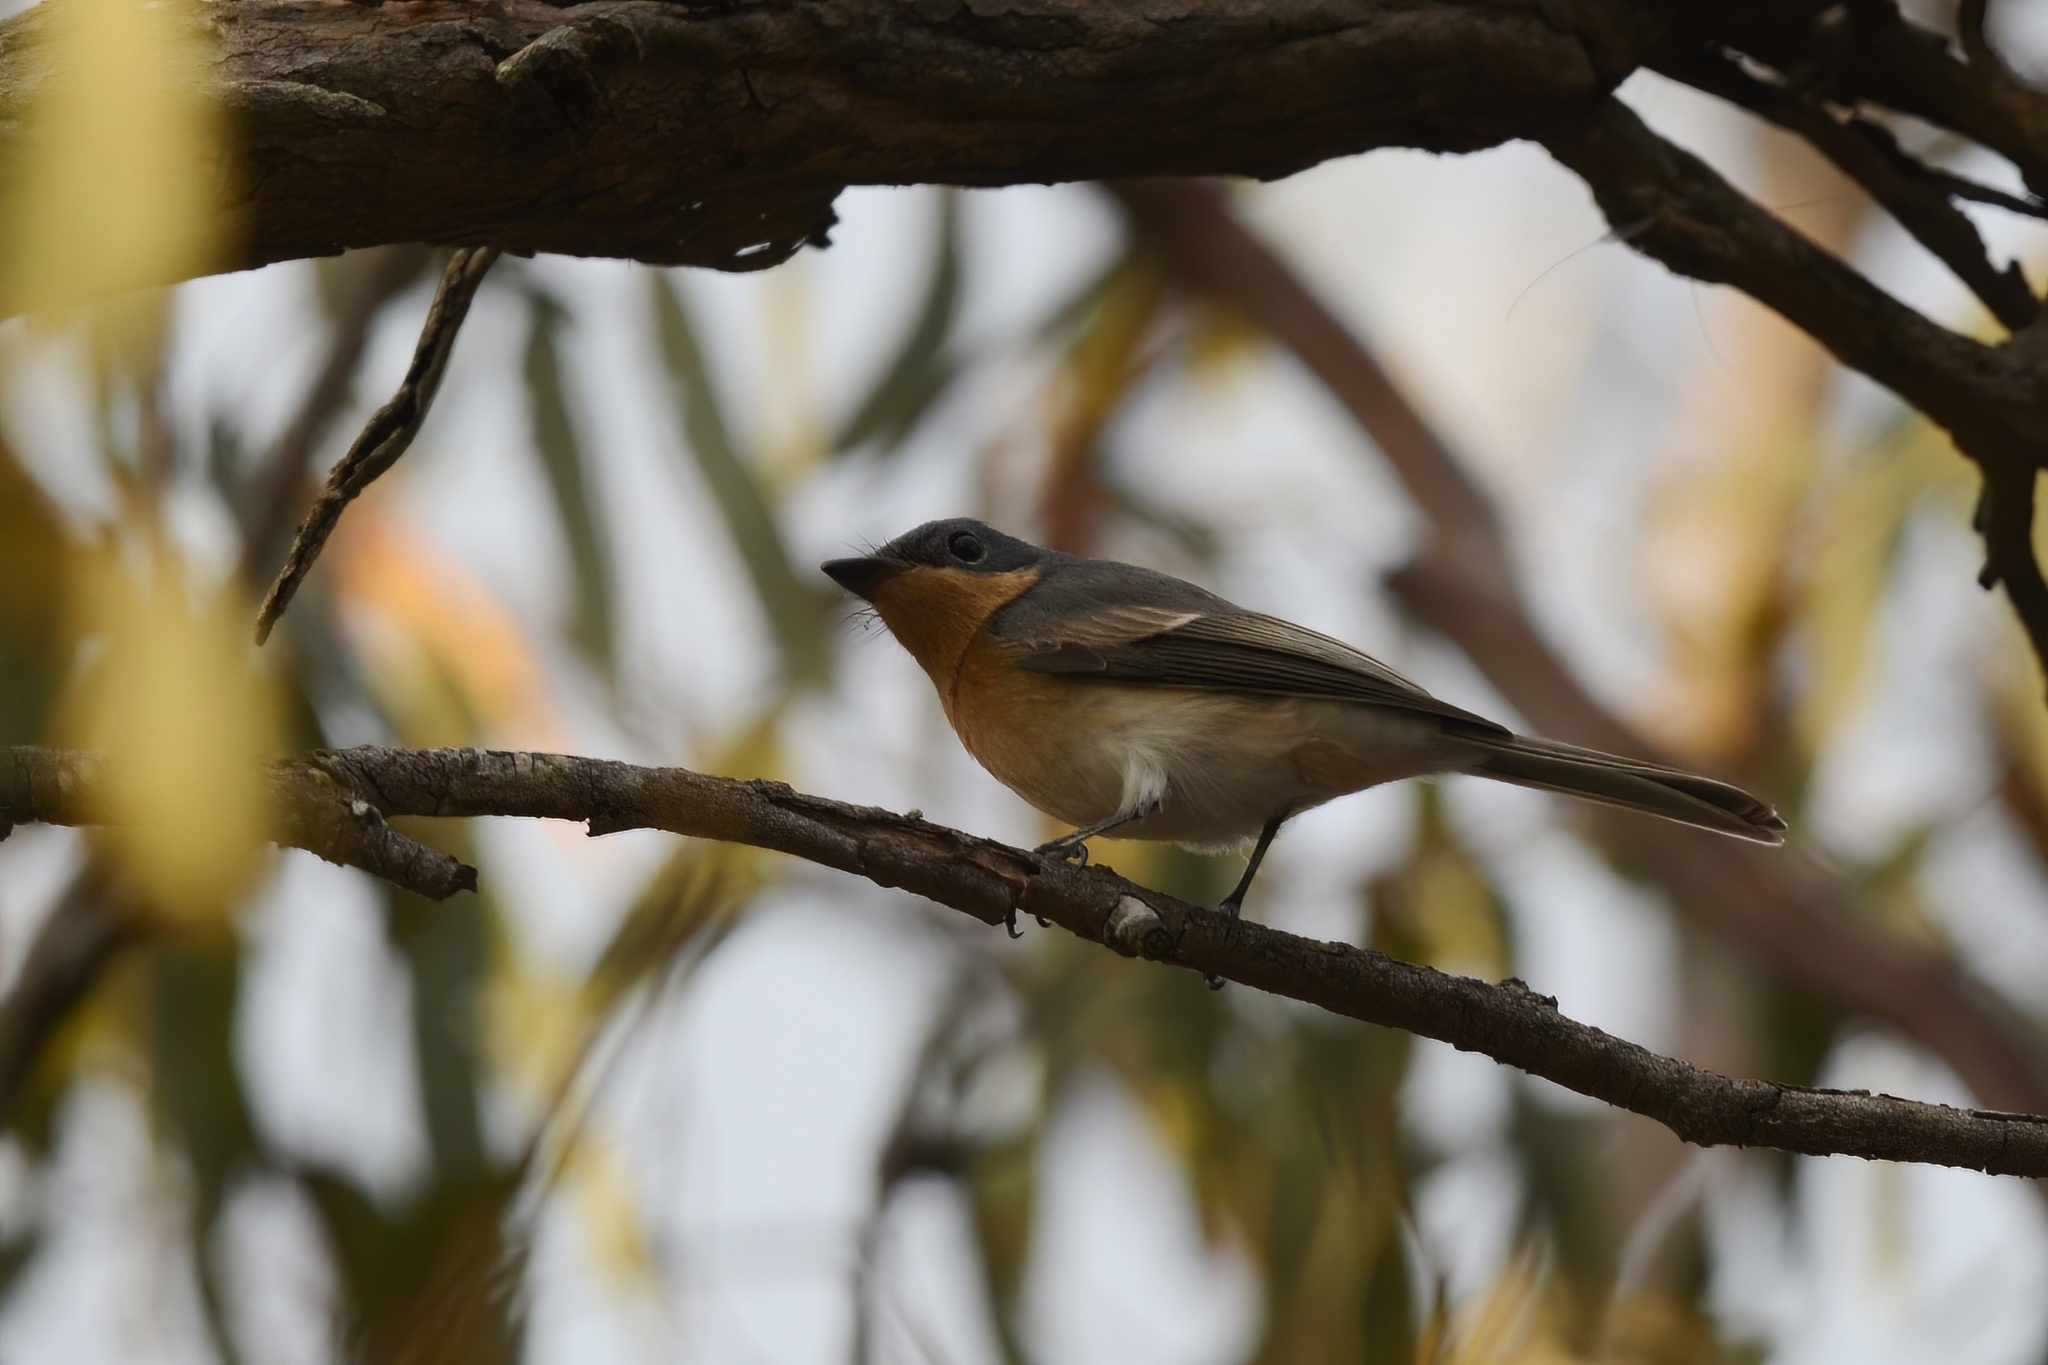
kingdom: Animalia
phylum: Chordata
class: Aves
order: Passeriformes
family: Monarchidae
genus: Myiagra
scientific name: Myiagra rubecula
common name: Leaden flycatcher
